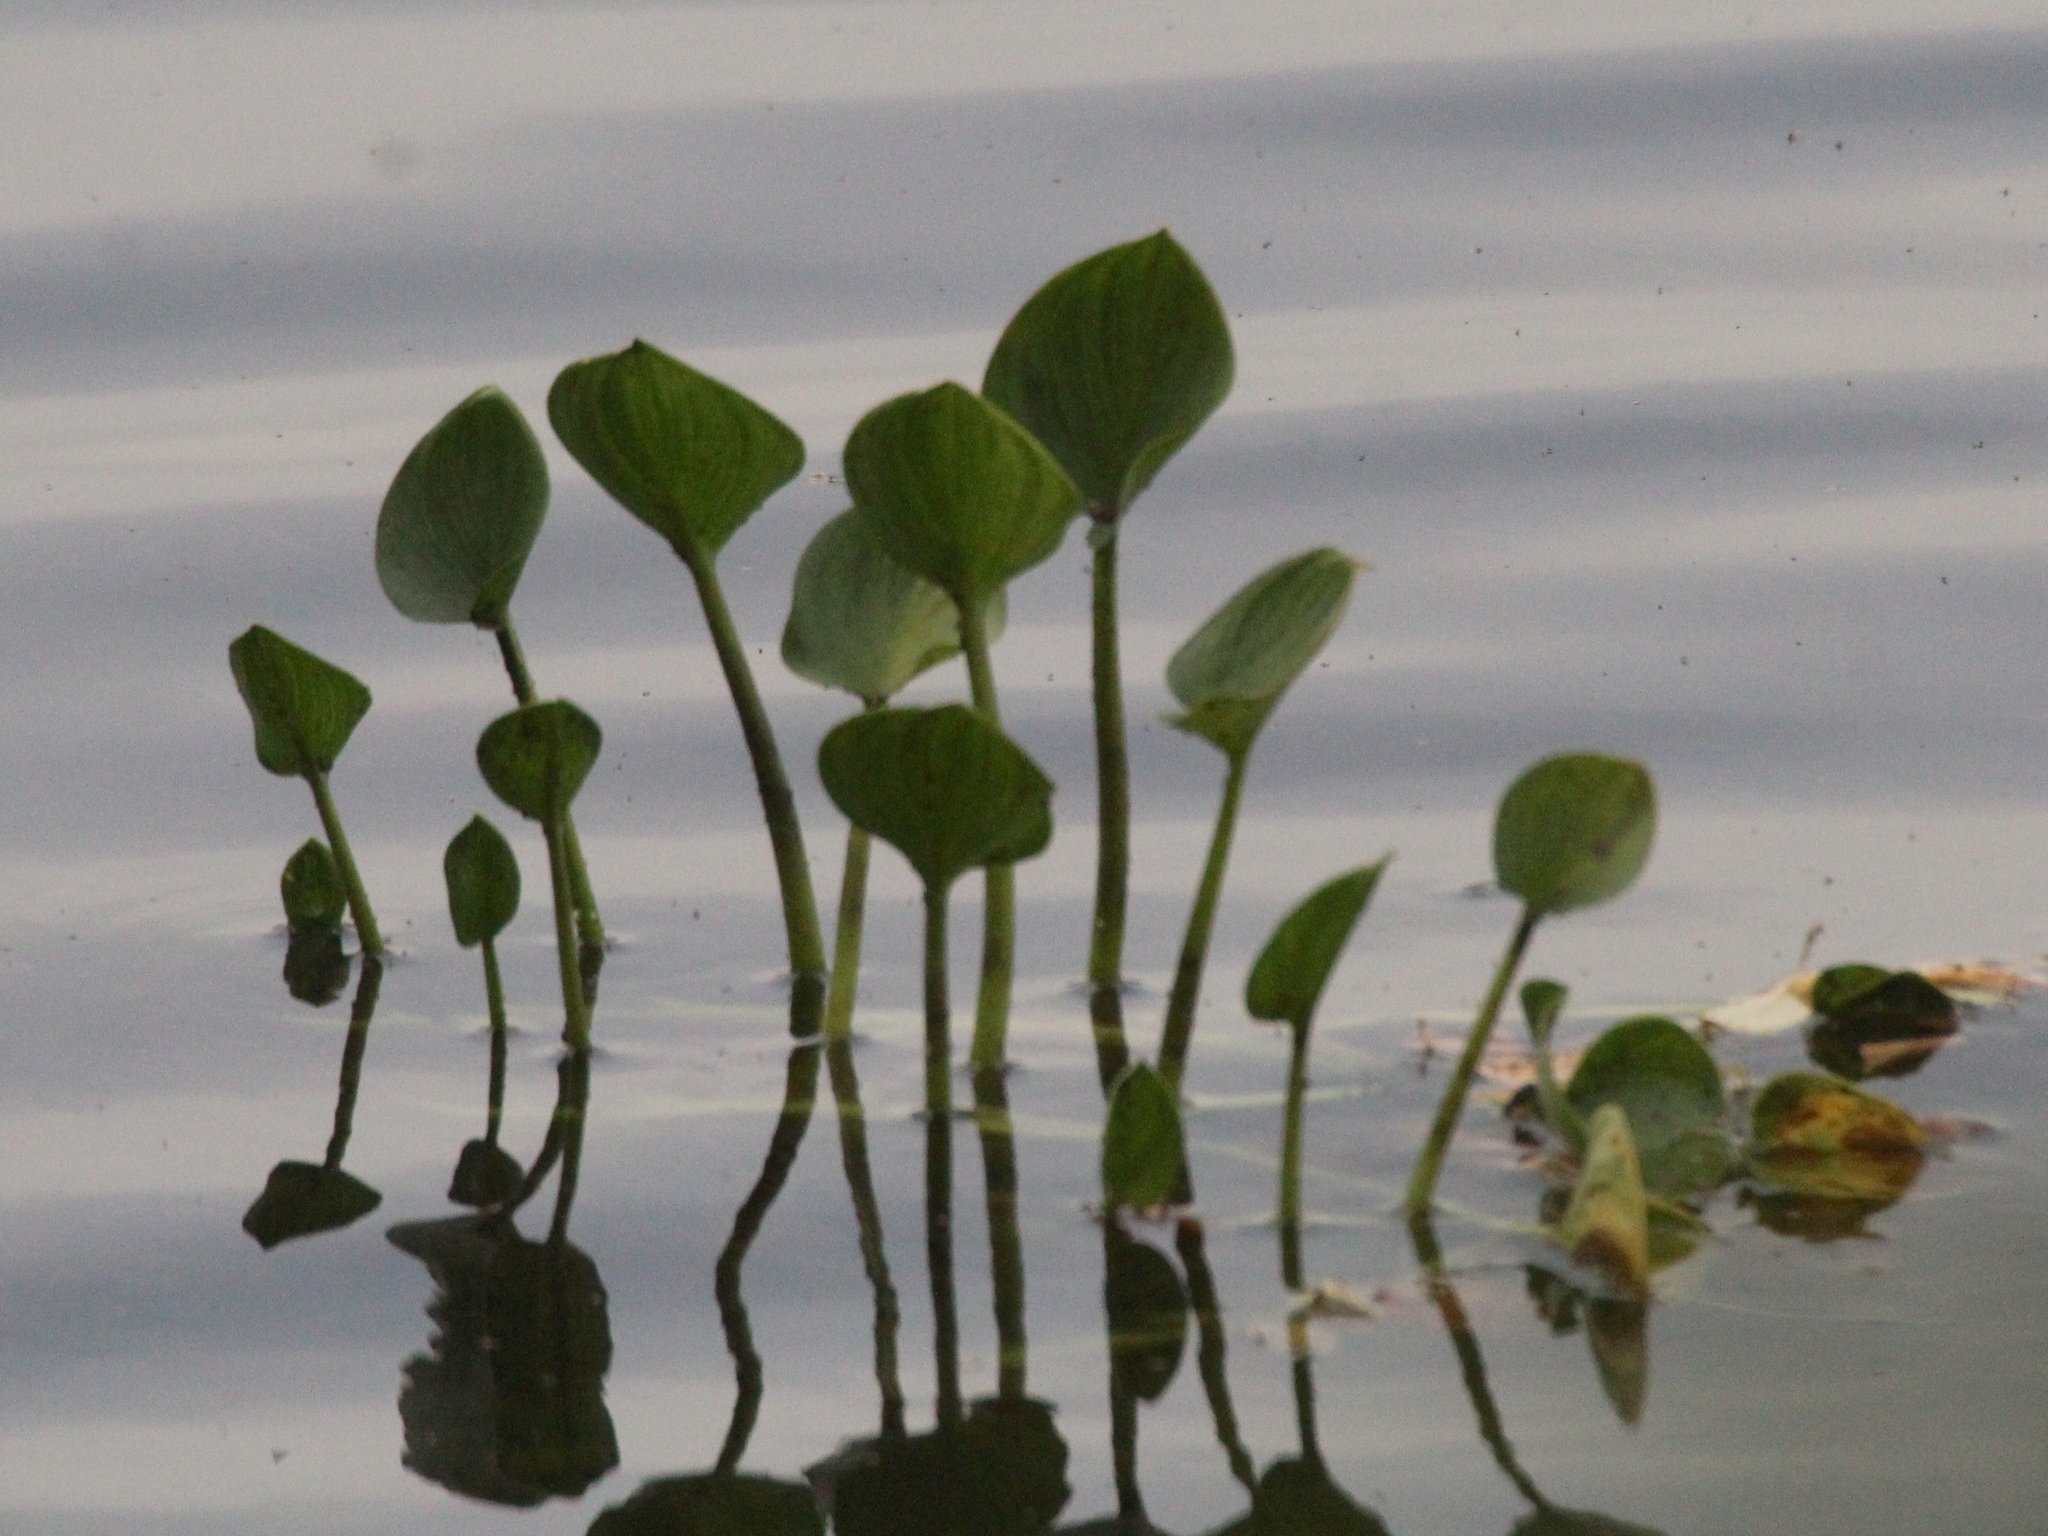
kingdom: Plantae
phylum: Tracheophyta
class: Liliopsida
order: Alismatales
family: Araceae
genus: Calla
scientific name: Calla palustris
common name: Bog arum
